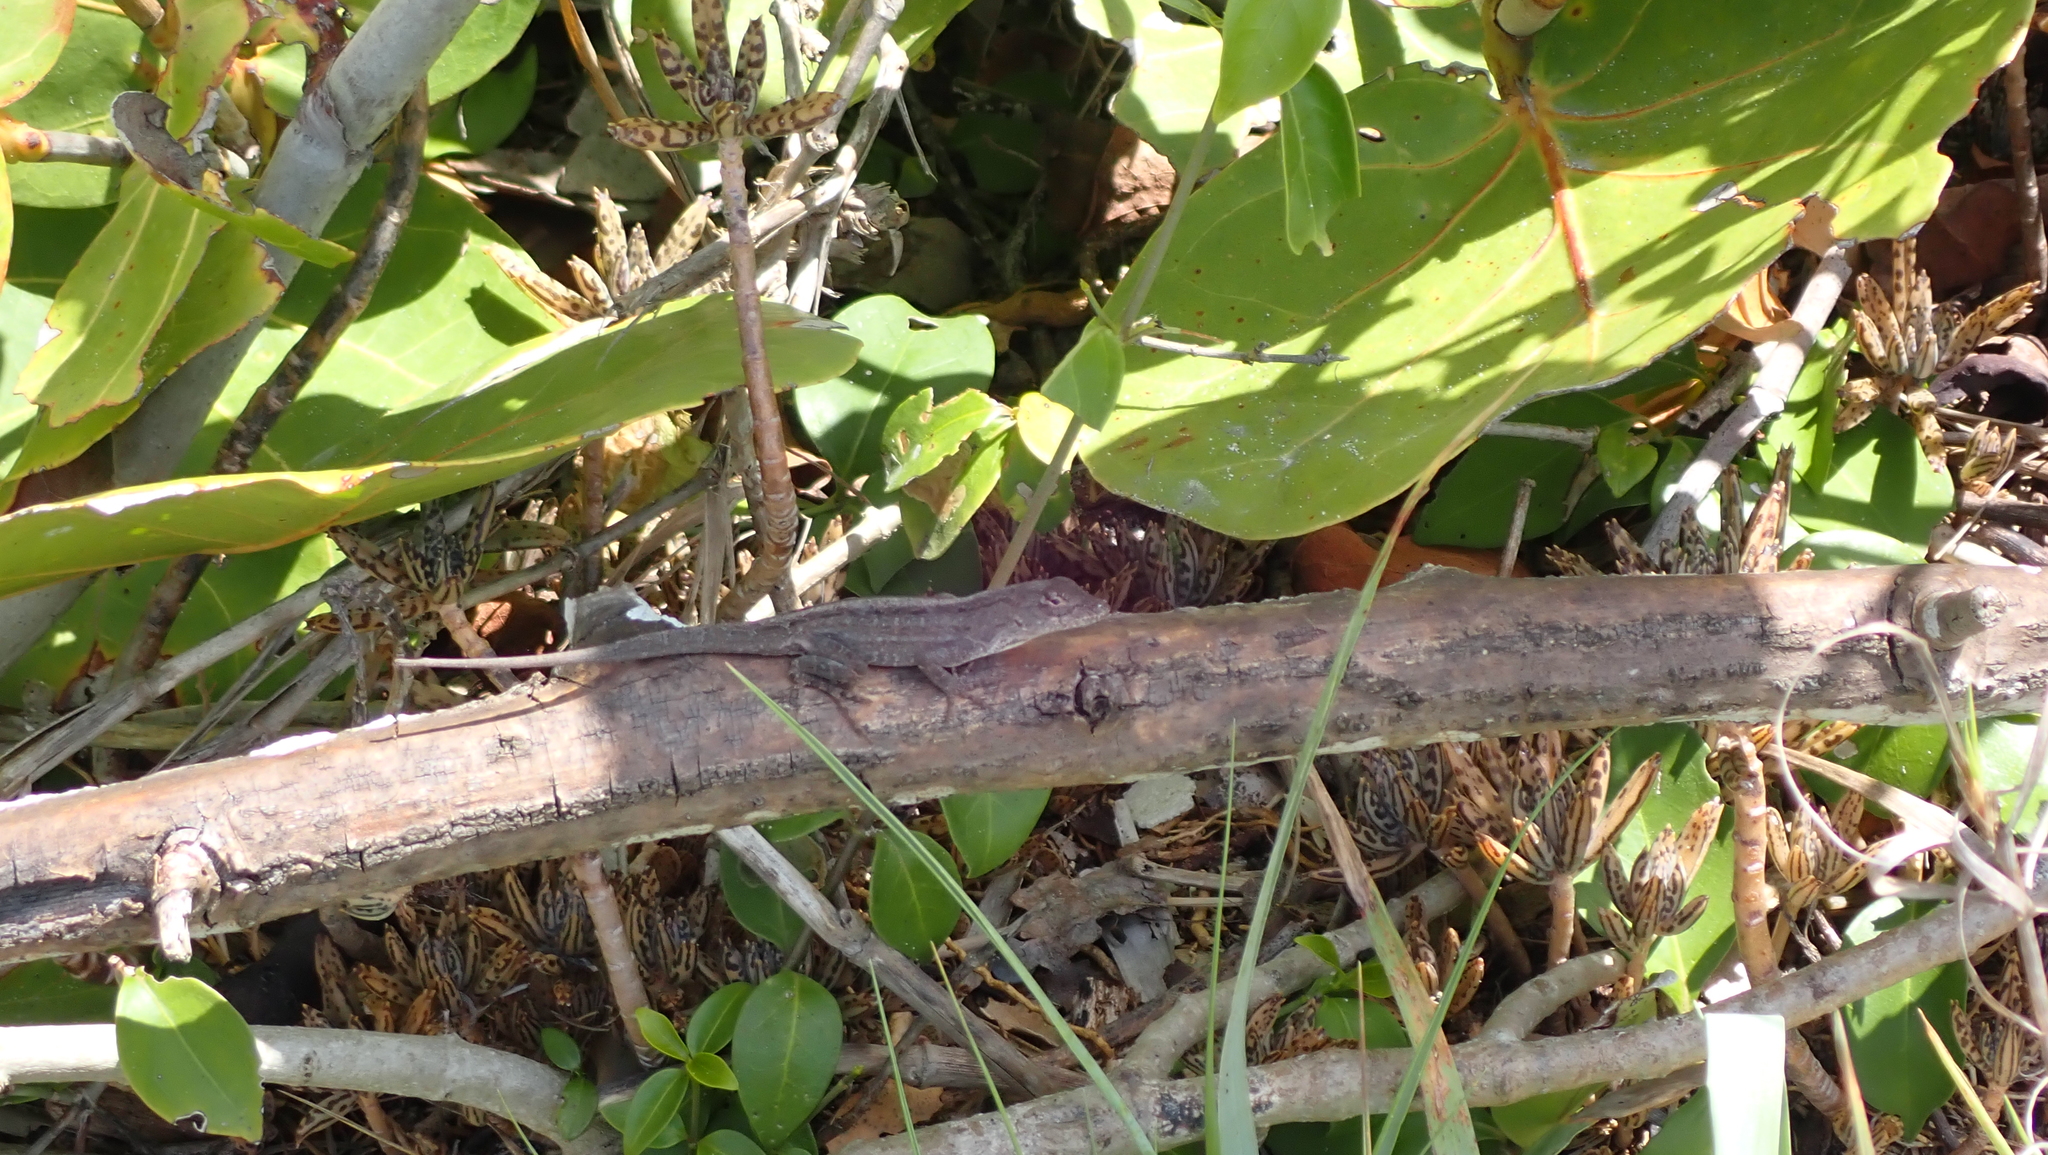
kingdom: Animalia
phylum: Chordata
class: Squamata
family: Dactyloidae
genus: Anolis
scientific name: Anolis sagrei
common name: Brown anole
